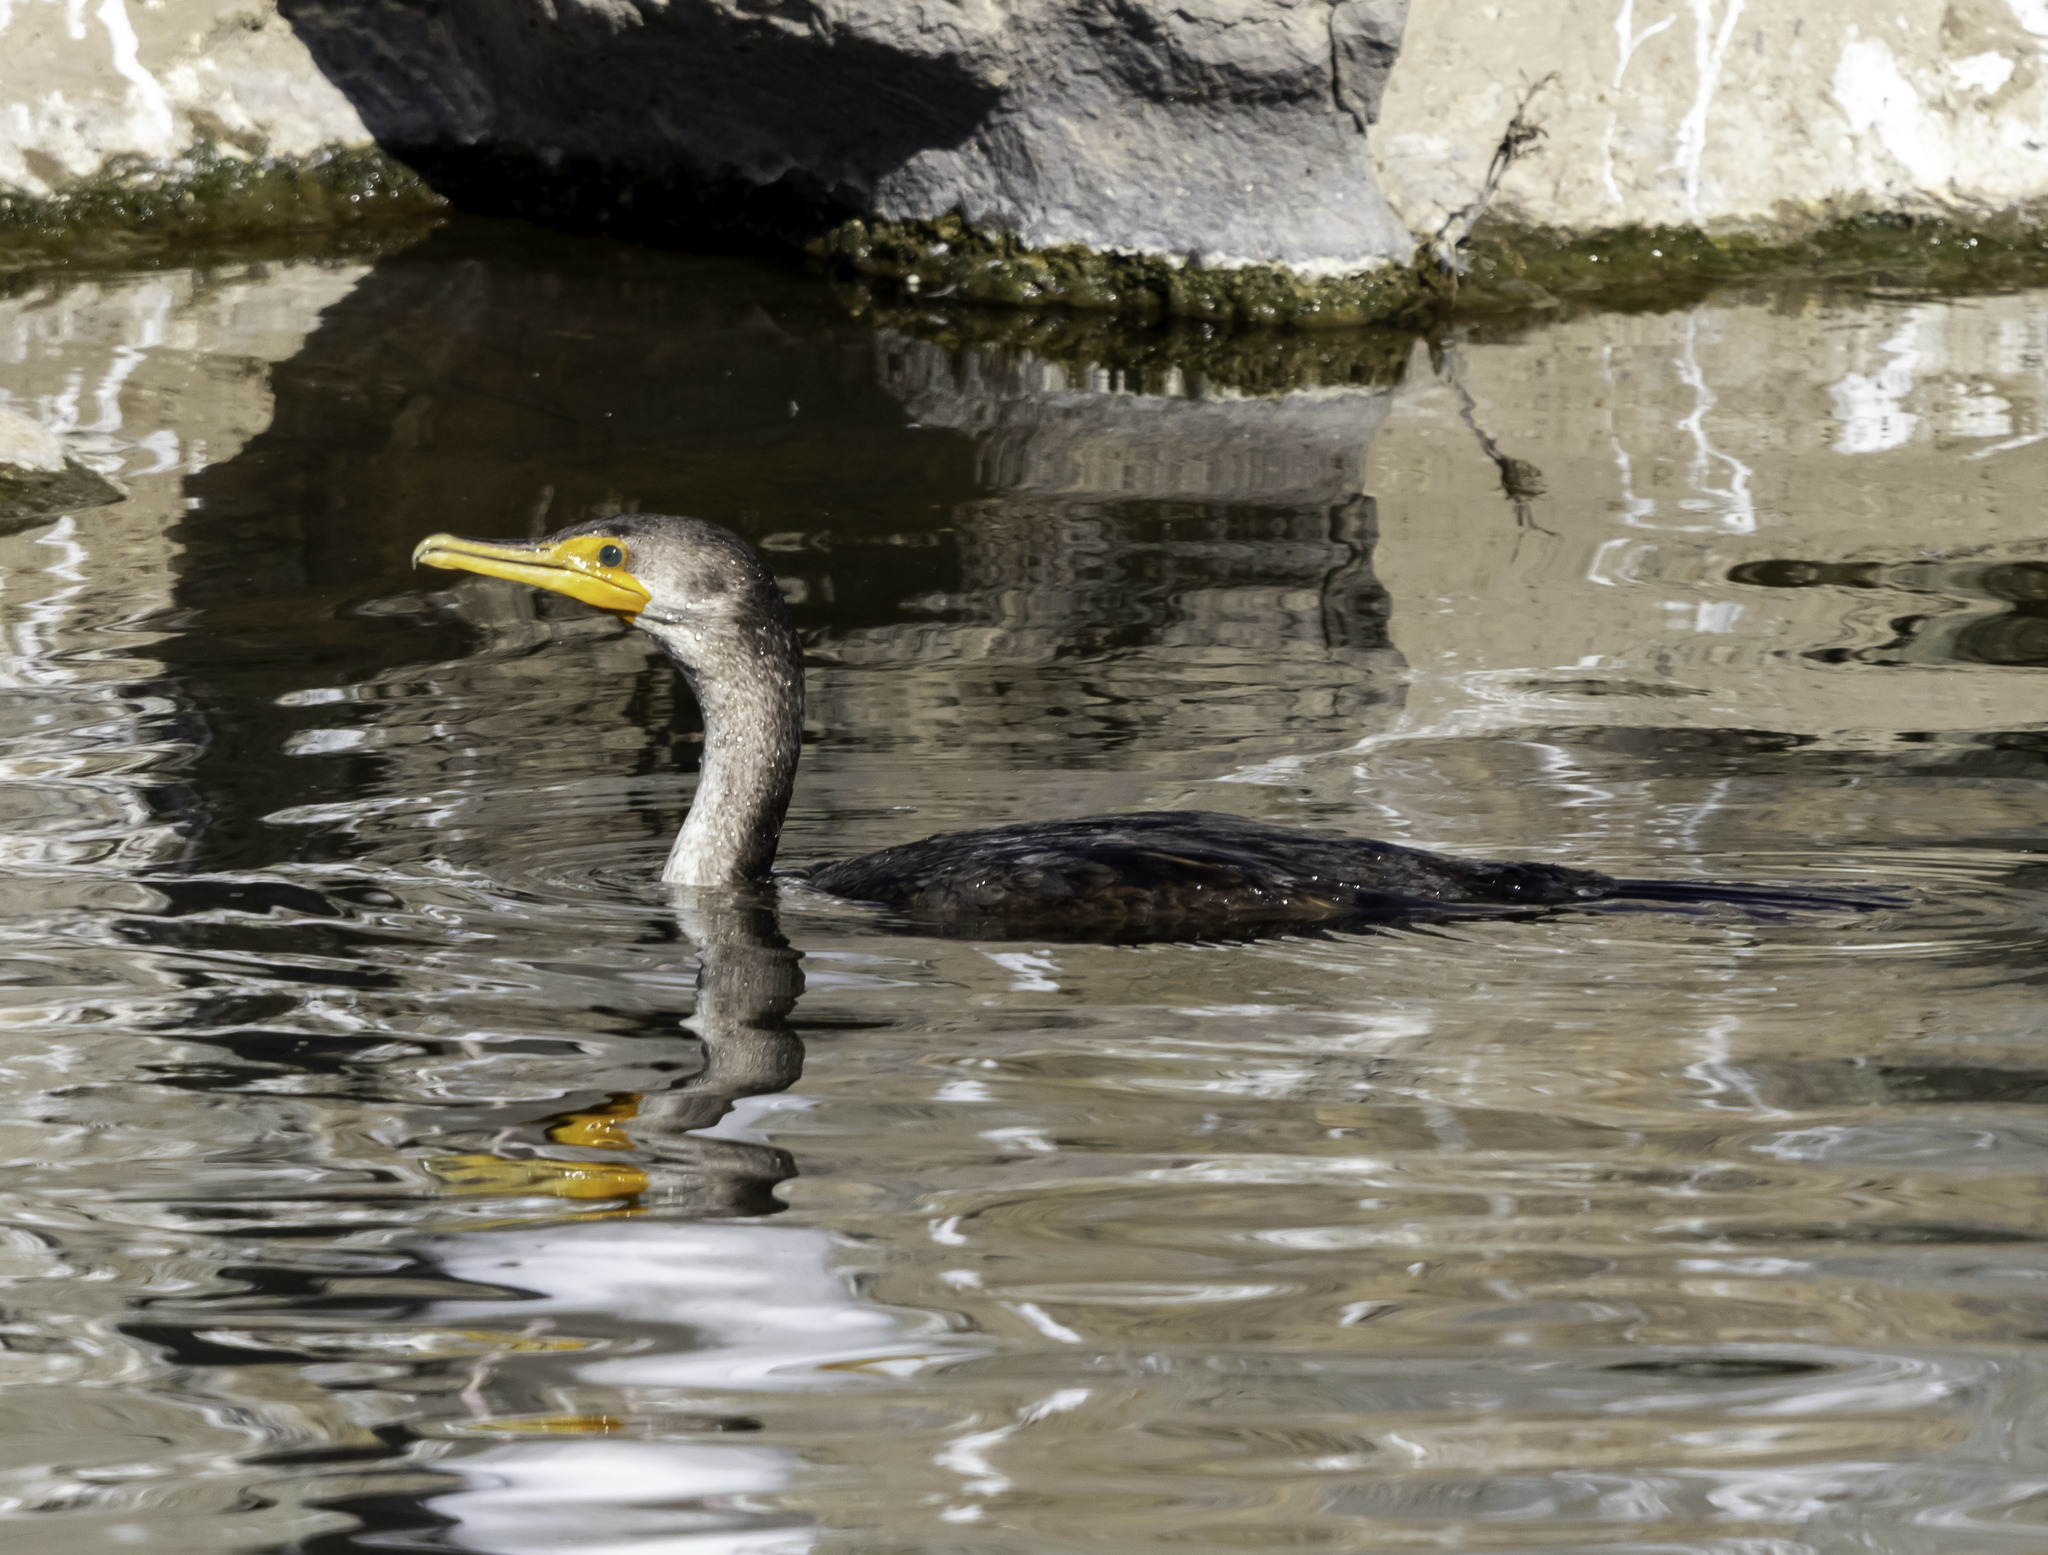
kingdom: Animalia
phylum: Chordata
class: Aves
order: Suliformes
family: Phalacrocoracidae
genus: Phalacrocorax
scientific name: Phalacrocorax auritus
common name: Double-crested cormorant
